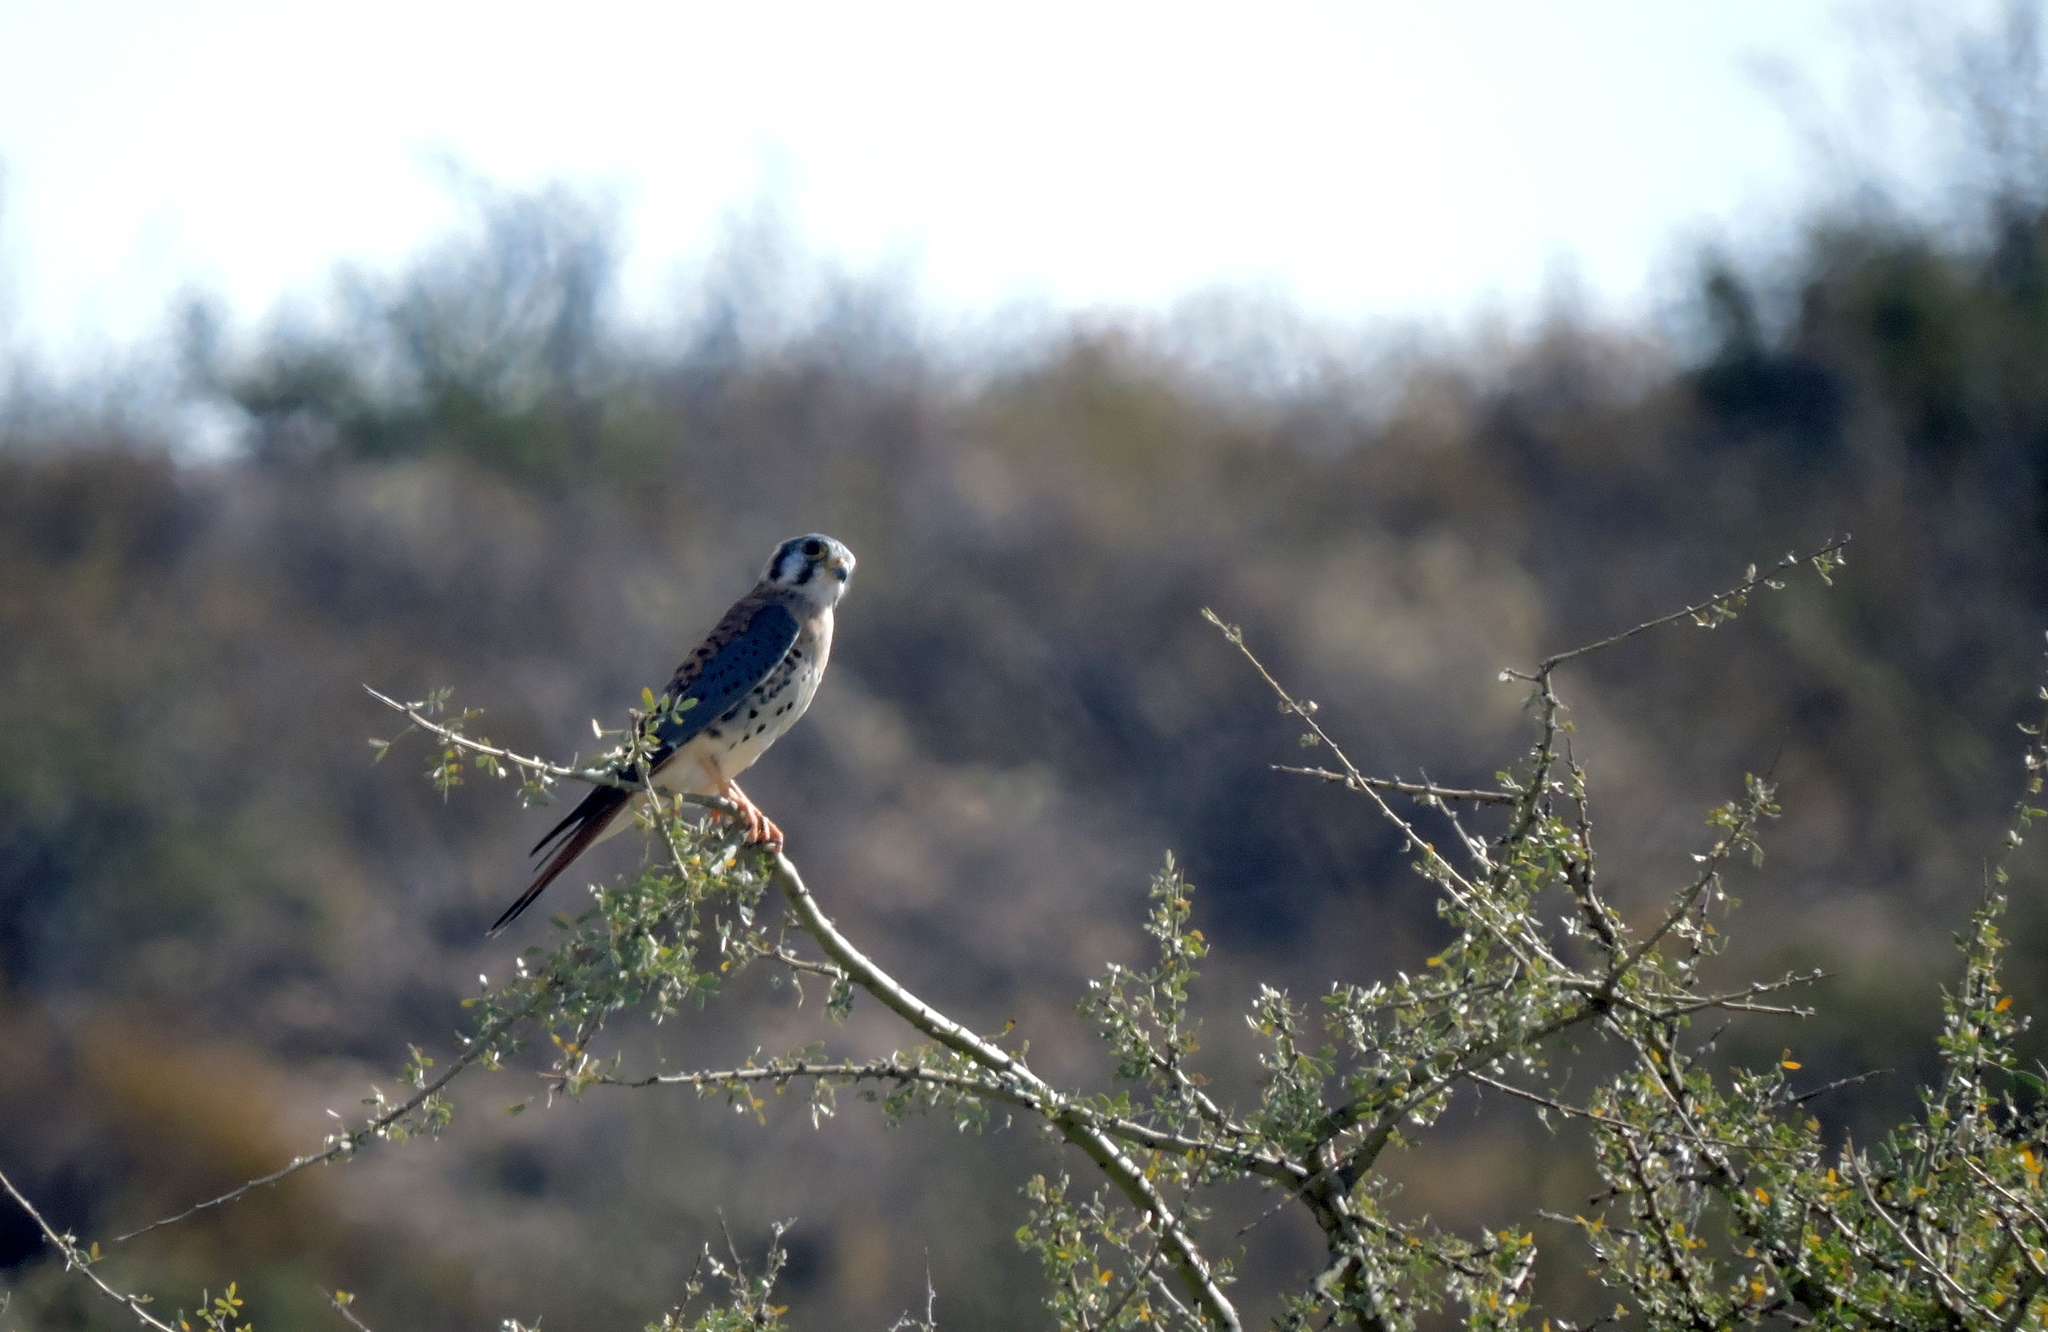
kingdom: Animalia
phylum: Chordata
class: Aves
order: Falconiformes
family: Falconidae
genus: Falco
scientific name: Falco sparverius
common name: American kestrel
